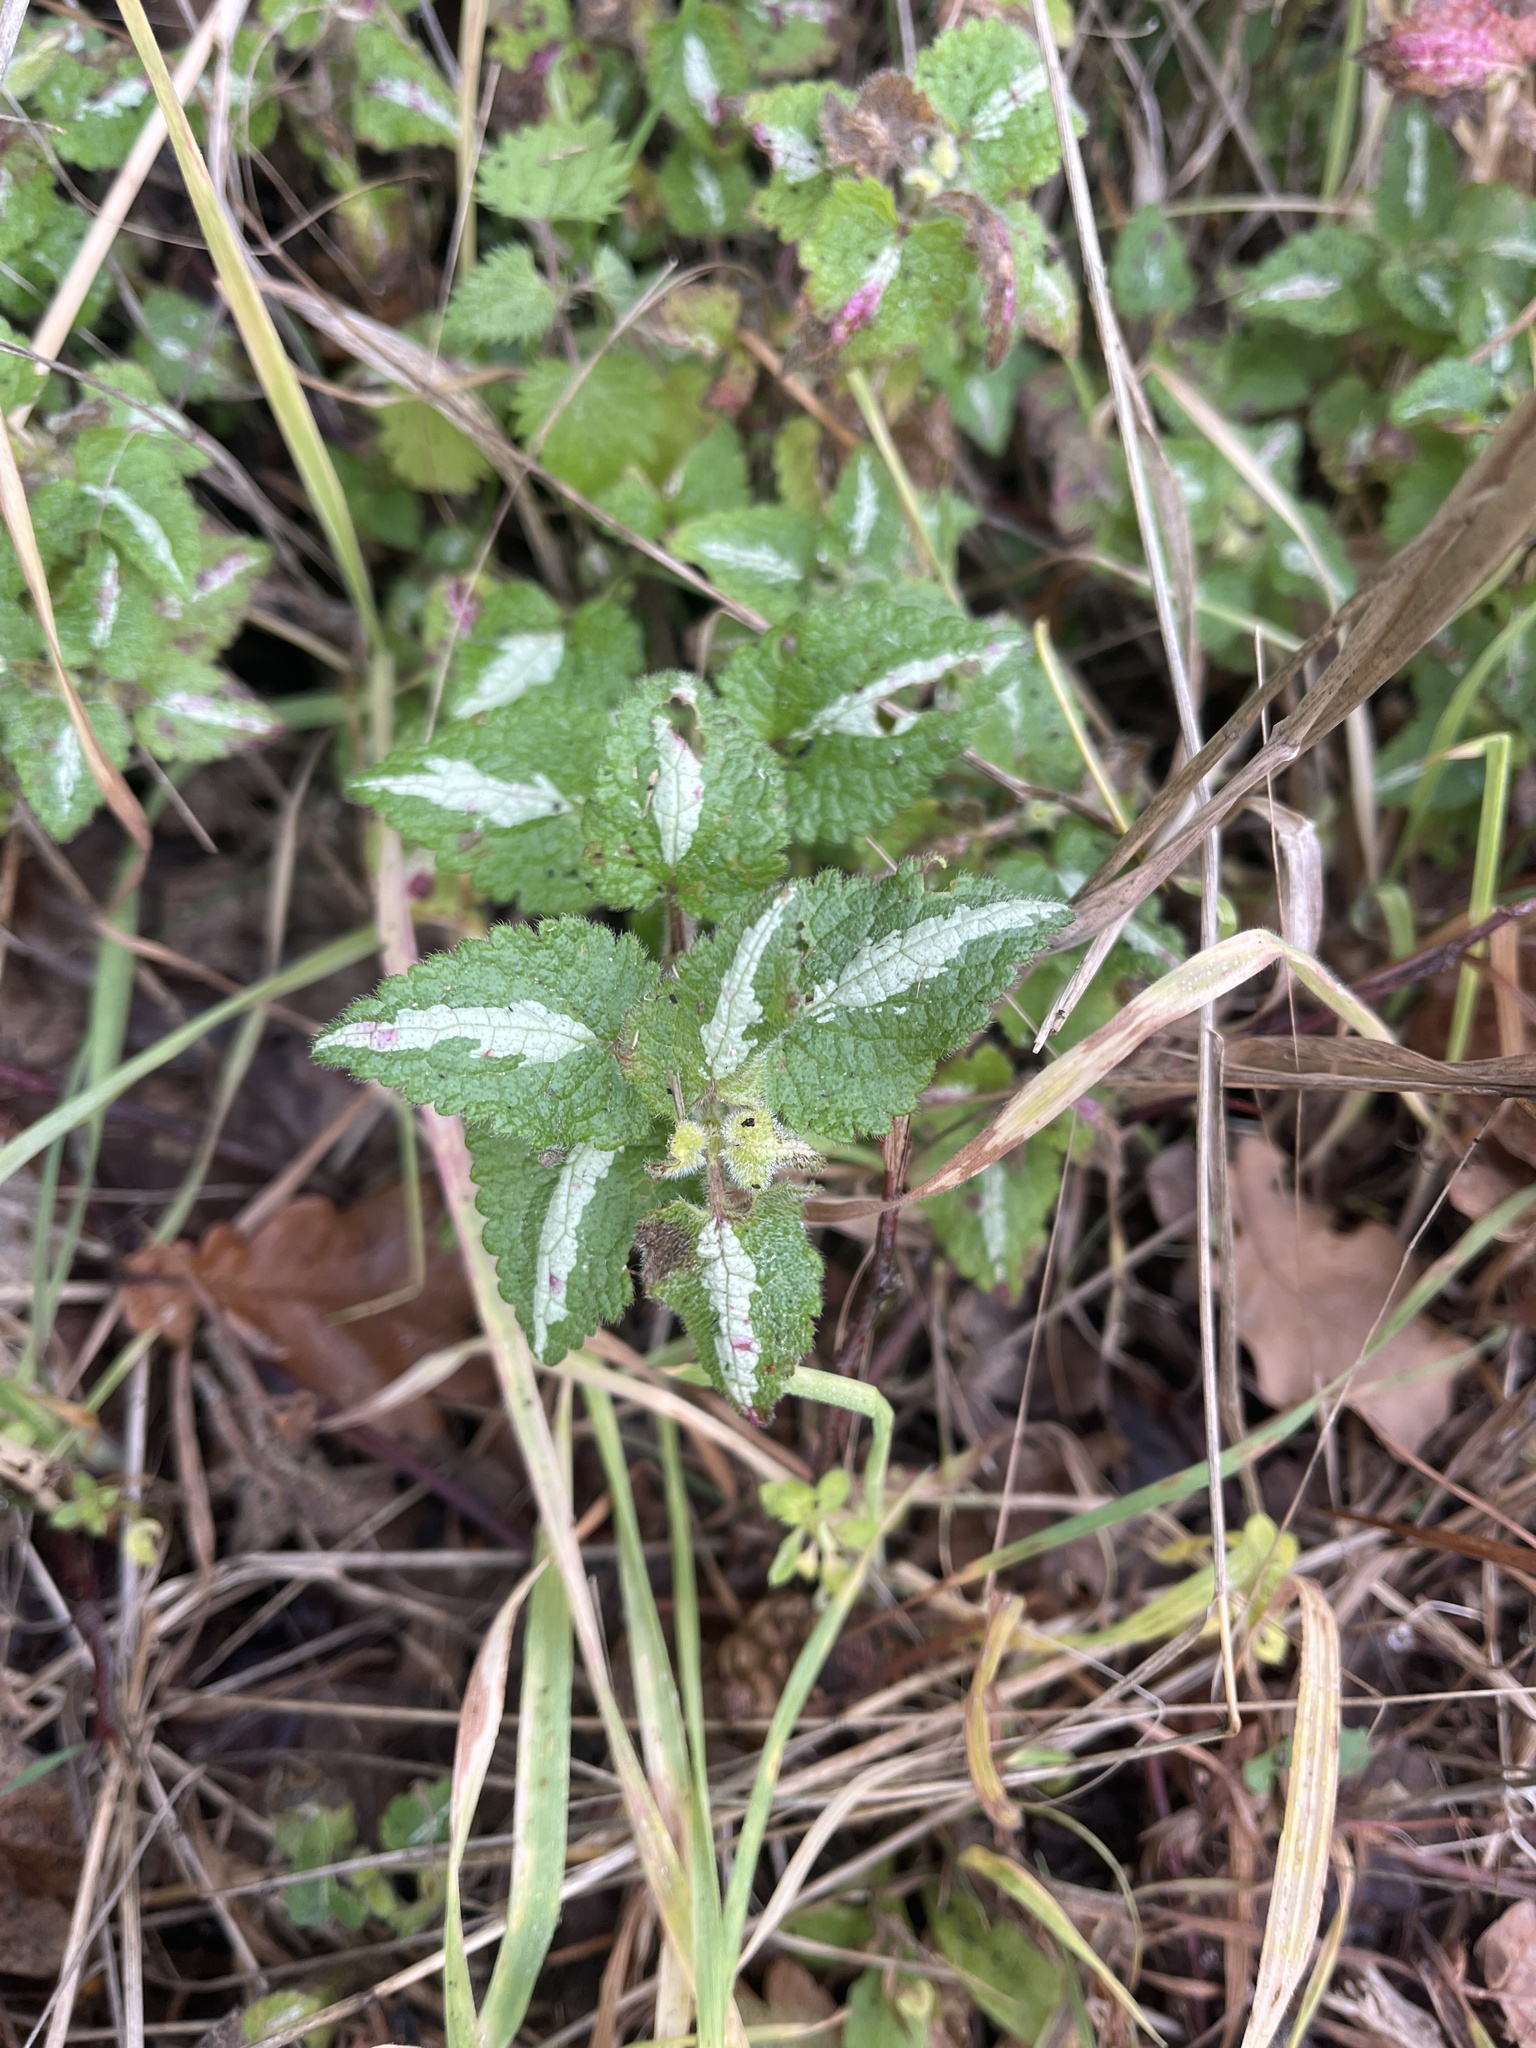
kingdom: Plantae
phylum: Tracheophyta
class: Magnoliopsida
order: Lamiales
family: Lamiaceae
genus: Lamium
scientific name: Lamium maculatum
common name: Spotted dead-nettle
